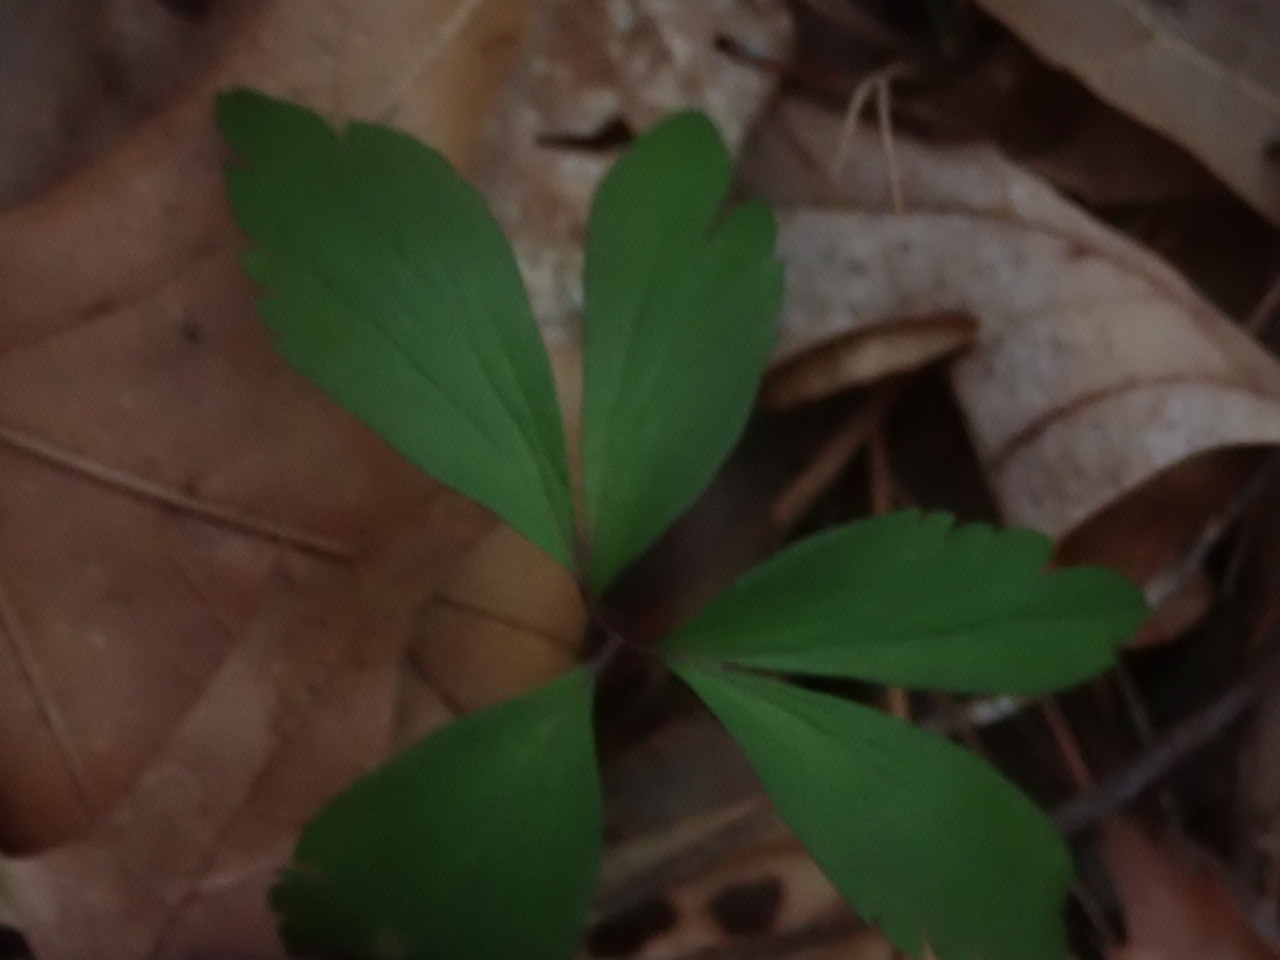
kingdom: Plantae
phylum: Tracheophyta
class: Magnoliopsida
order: Ranunculales
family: Ranunculaceae
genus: Anemone
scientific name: Anemone quinquefolia
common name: Wood anemone
